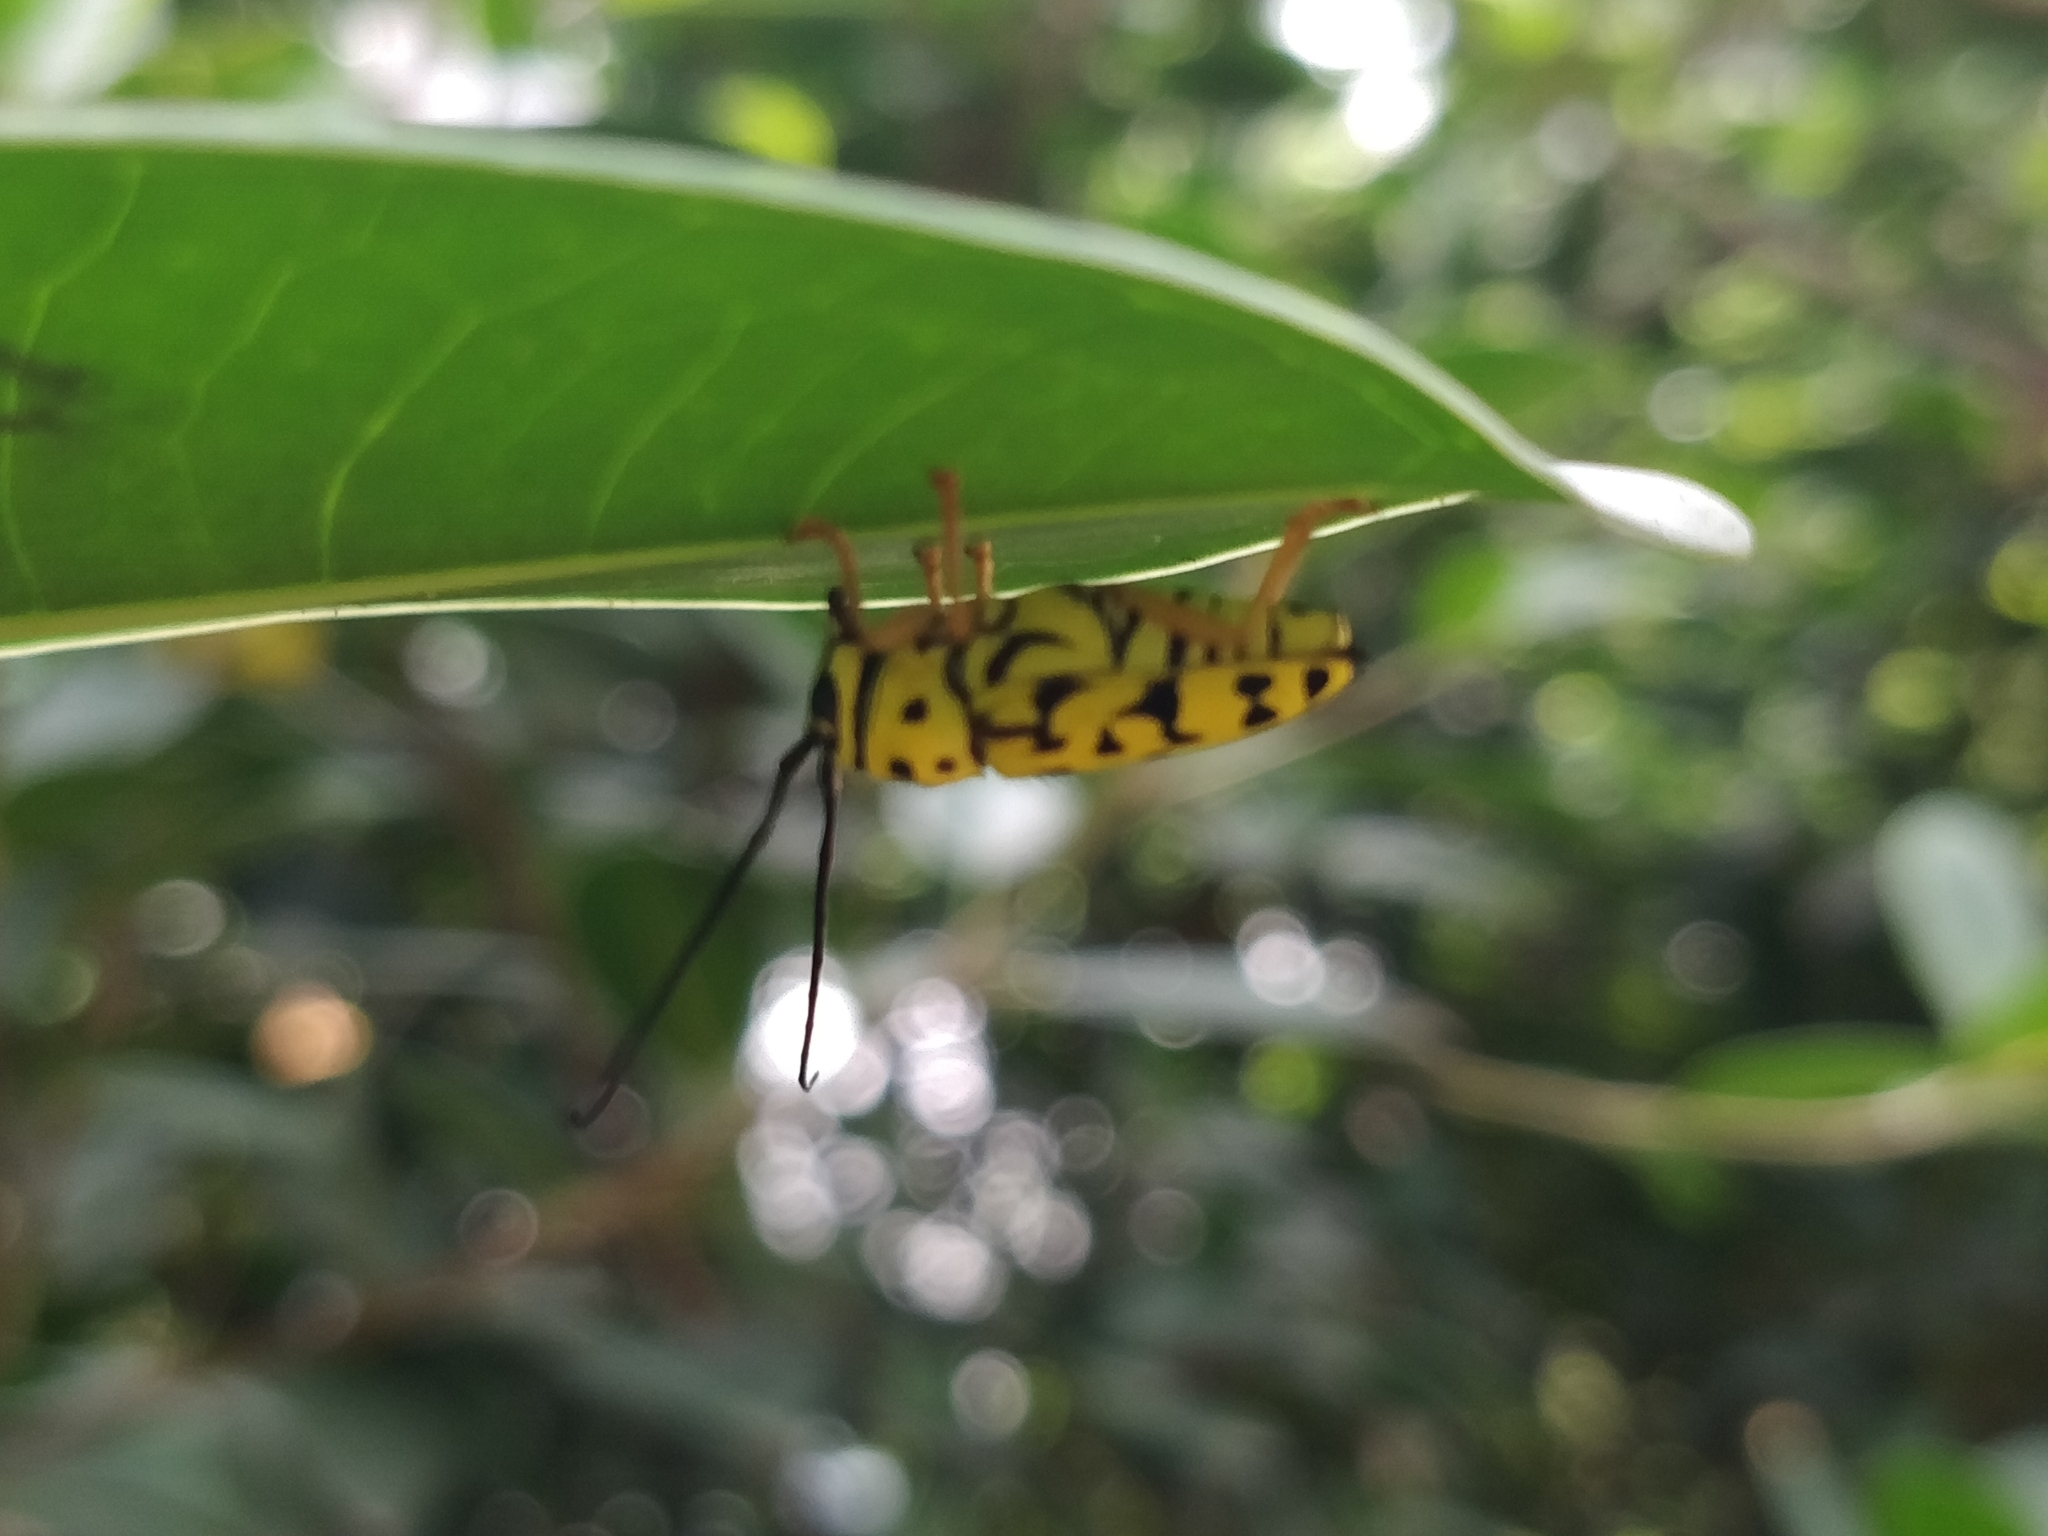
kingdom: Animalia
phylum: Arthropoda
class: Insecta
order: Coleoptera
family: Cerambycidae
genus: Glenea
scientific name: Glenea multiguttata
